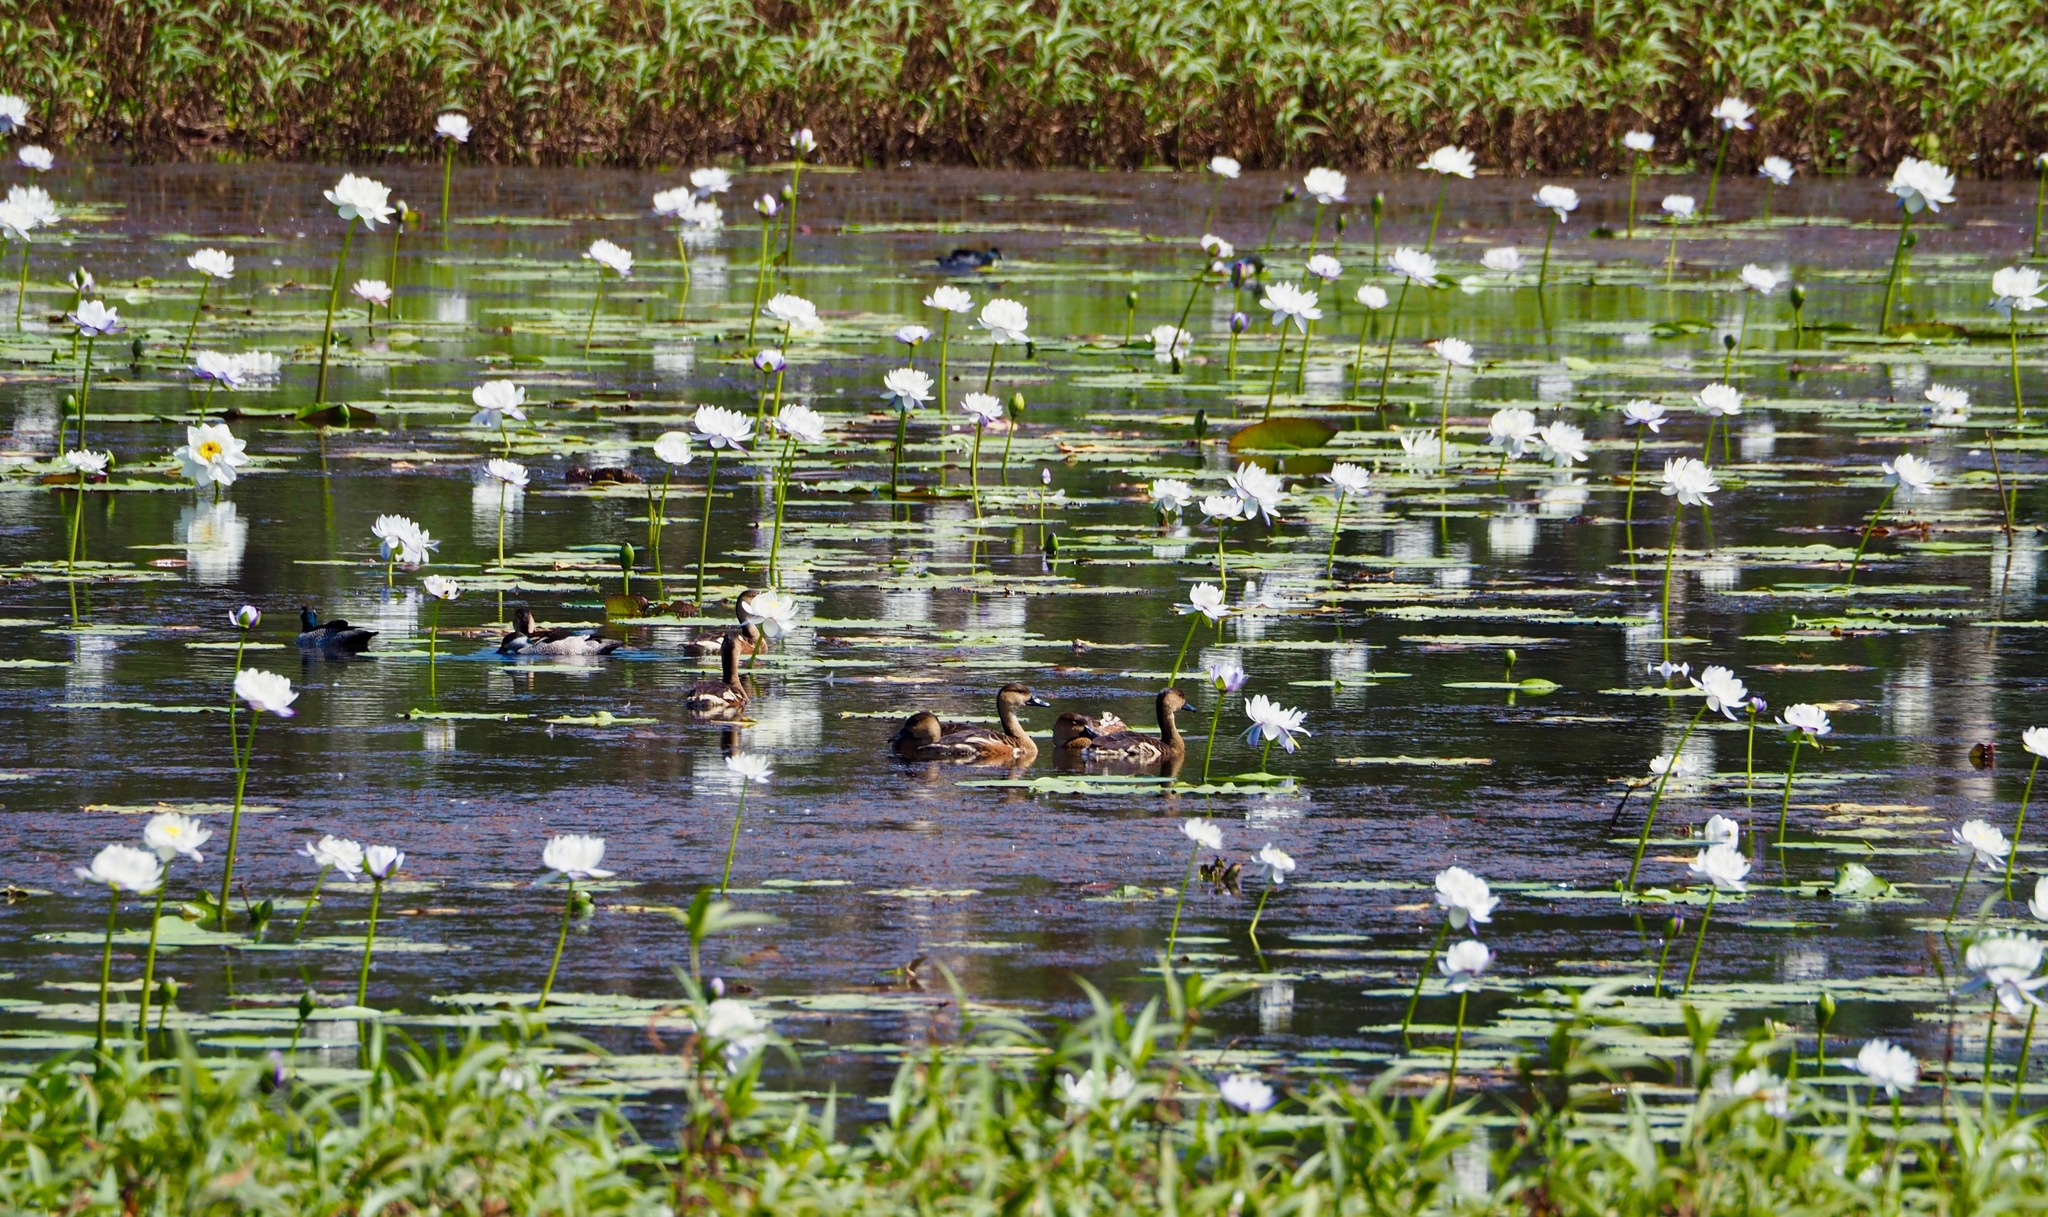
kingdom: Animalia
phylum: Chordata
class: Aves
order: Anseriformes
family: Anatidae
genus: Dendrocygna
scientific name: Dendrocygna arcuata
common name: Wandering whistling-duck
